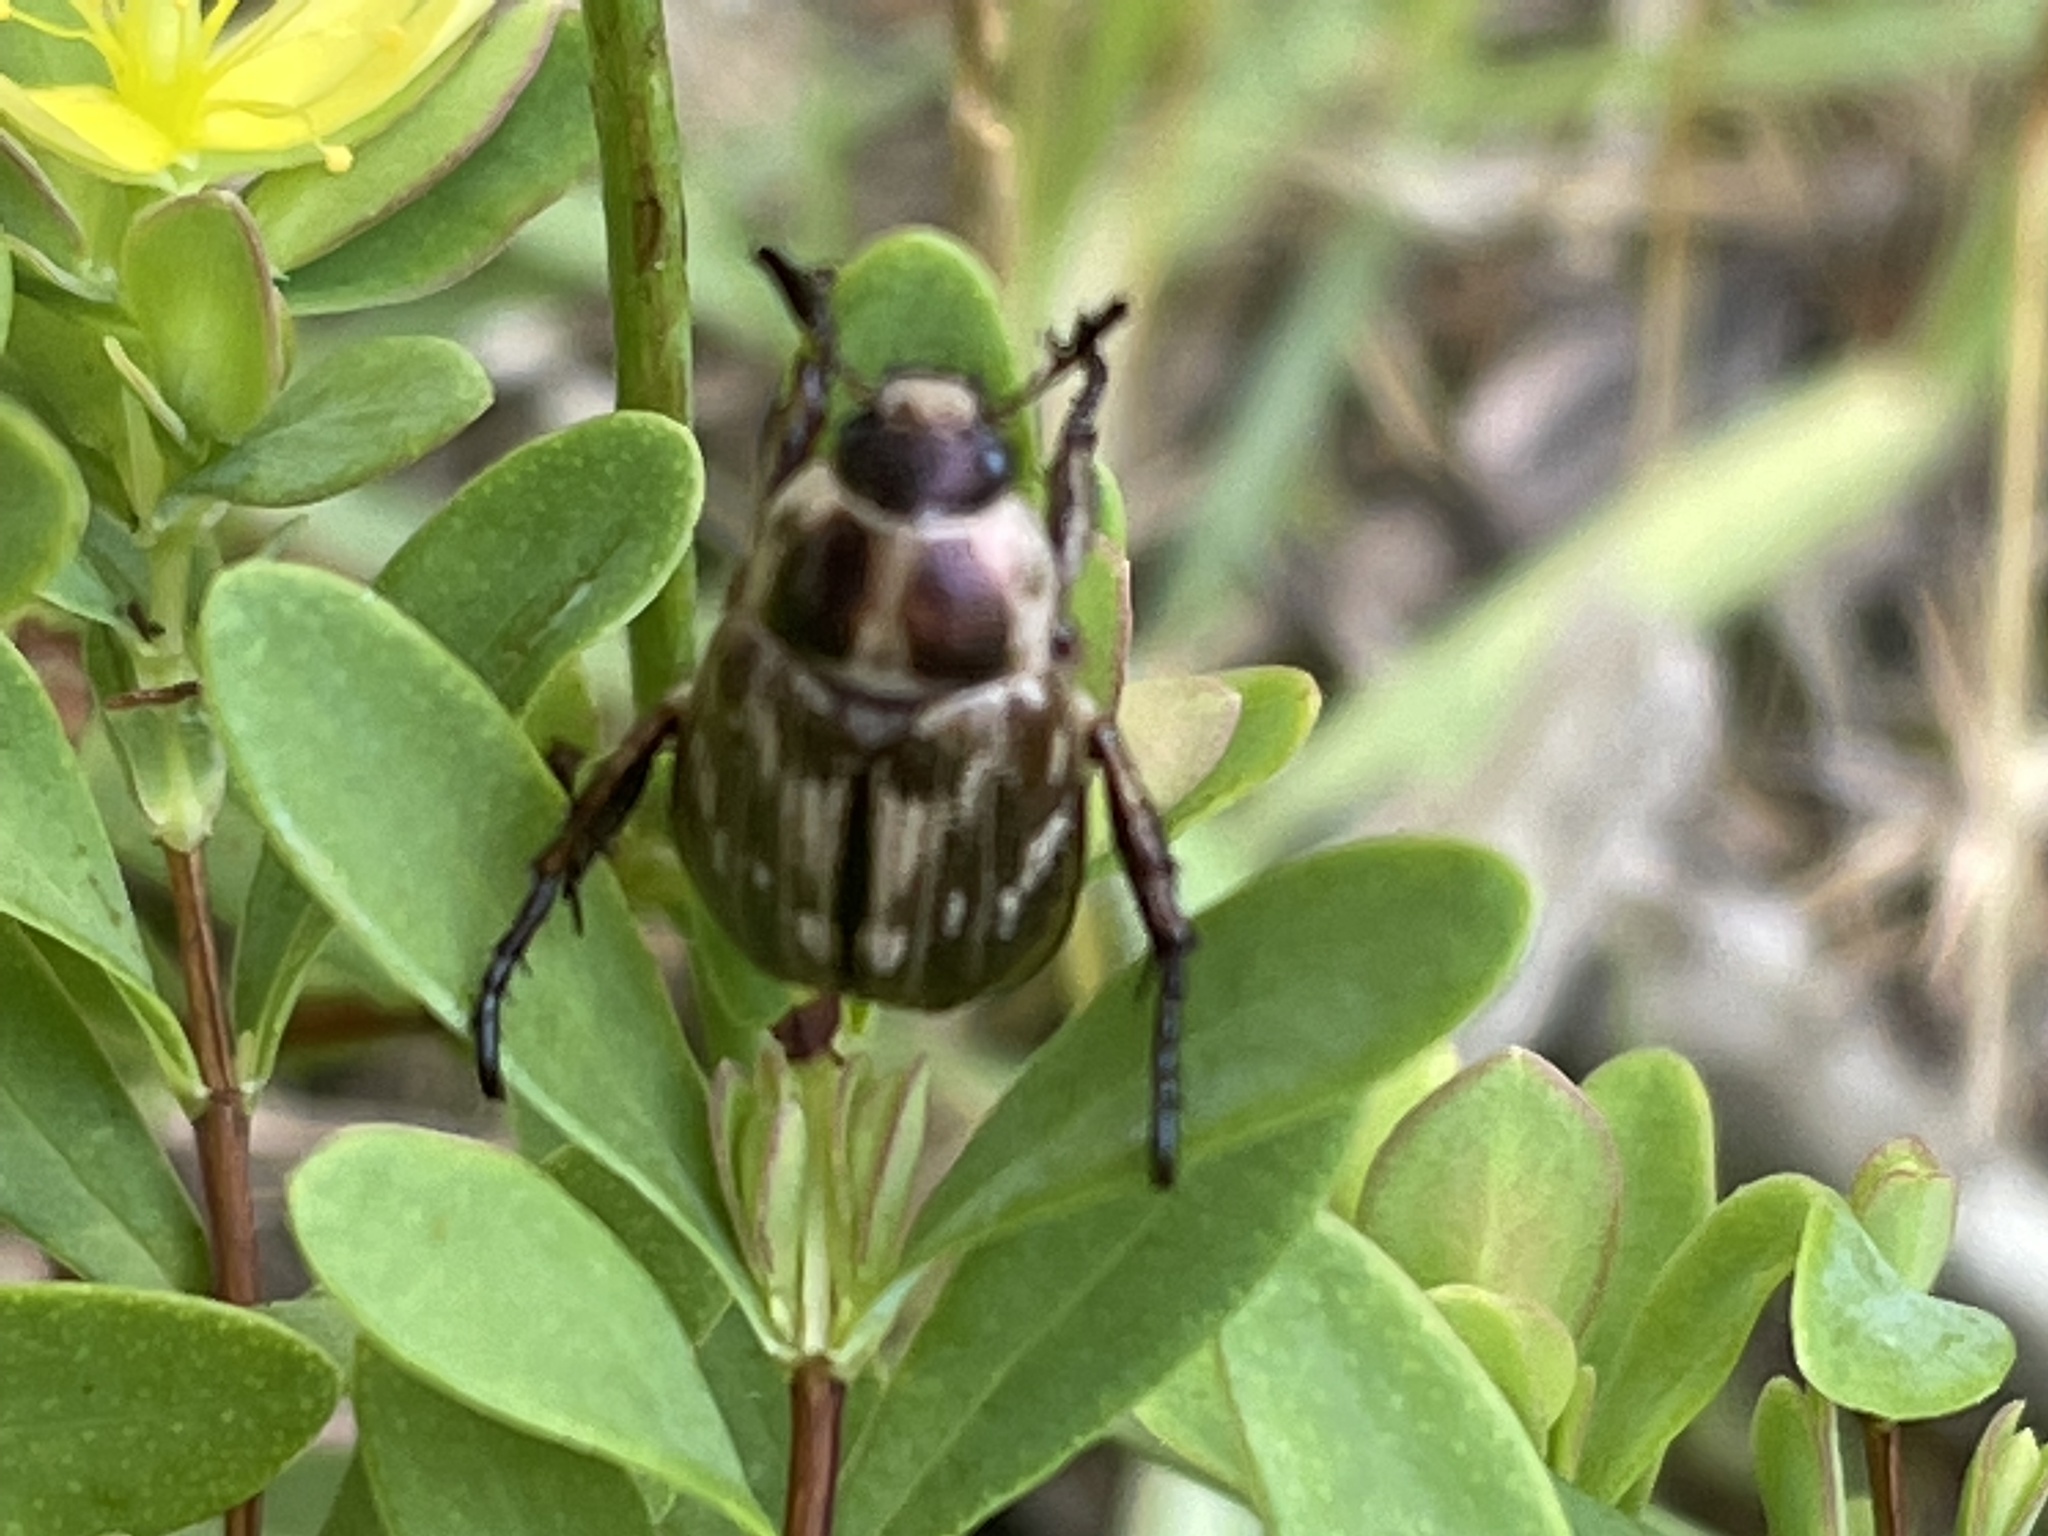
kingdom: Animalia
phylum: Arthropoda
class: Insecta
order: Coleoptera
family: Scarabaeidae
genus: Exomala
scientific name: Exomala orientalis
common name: Oriental beetle
